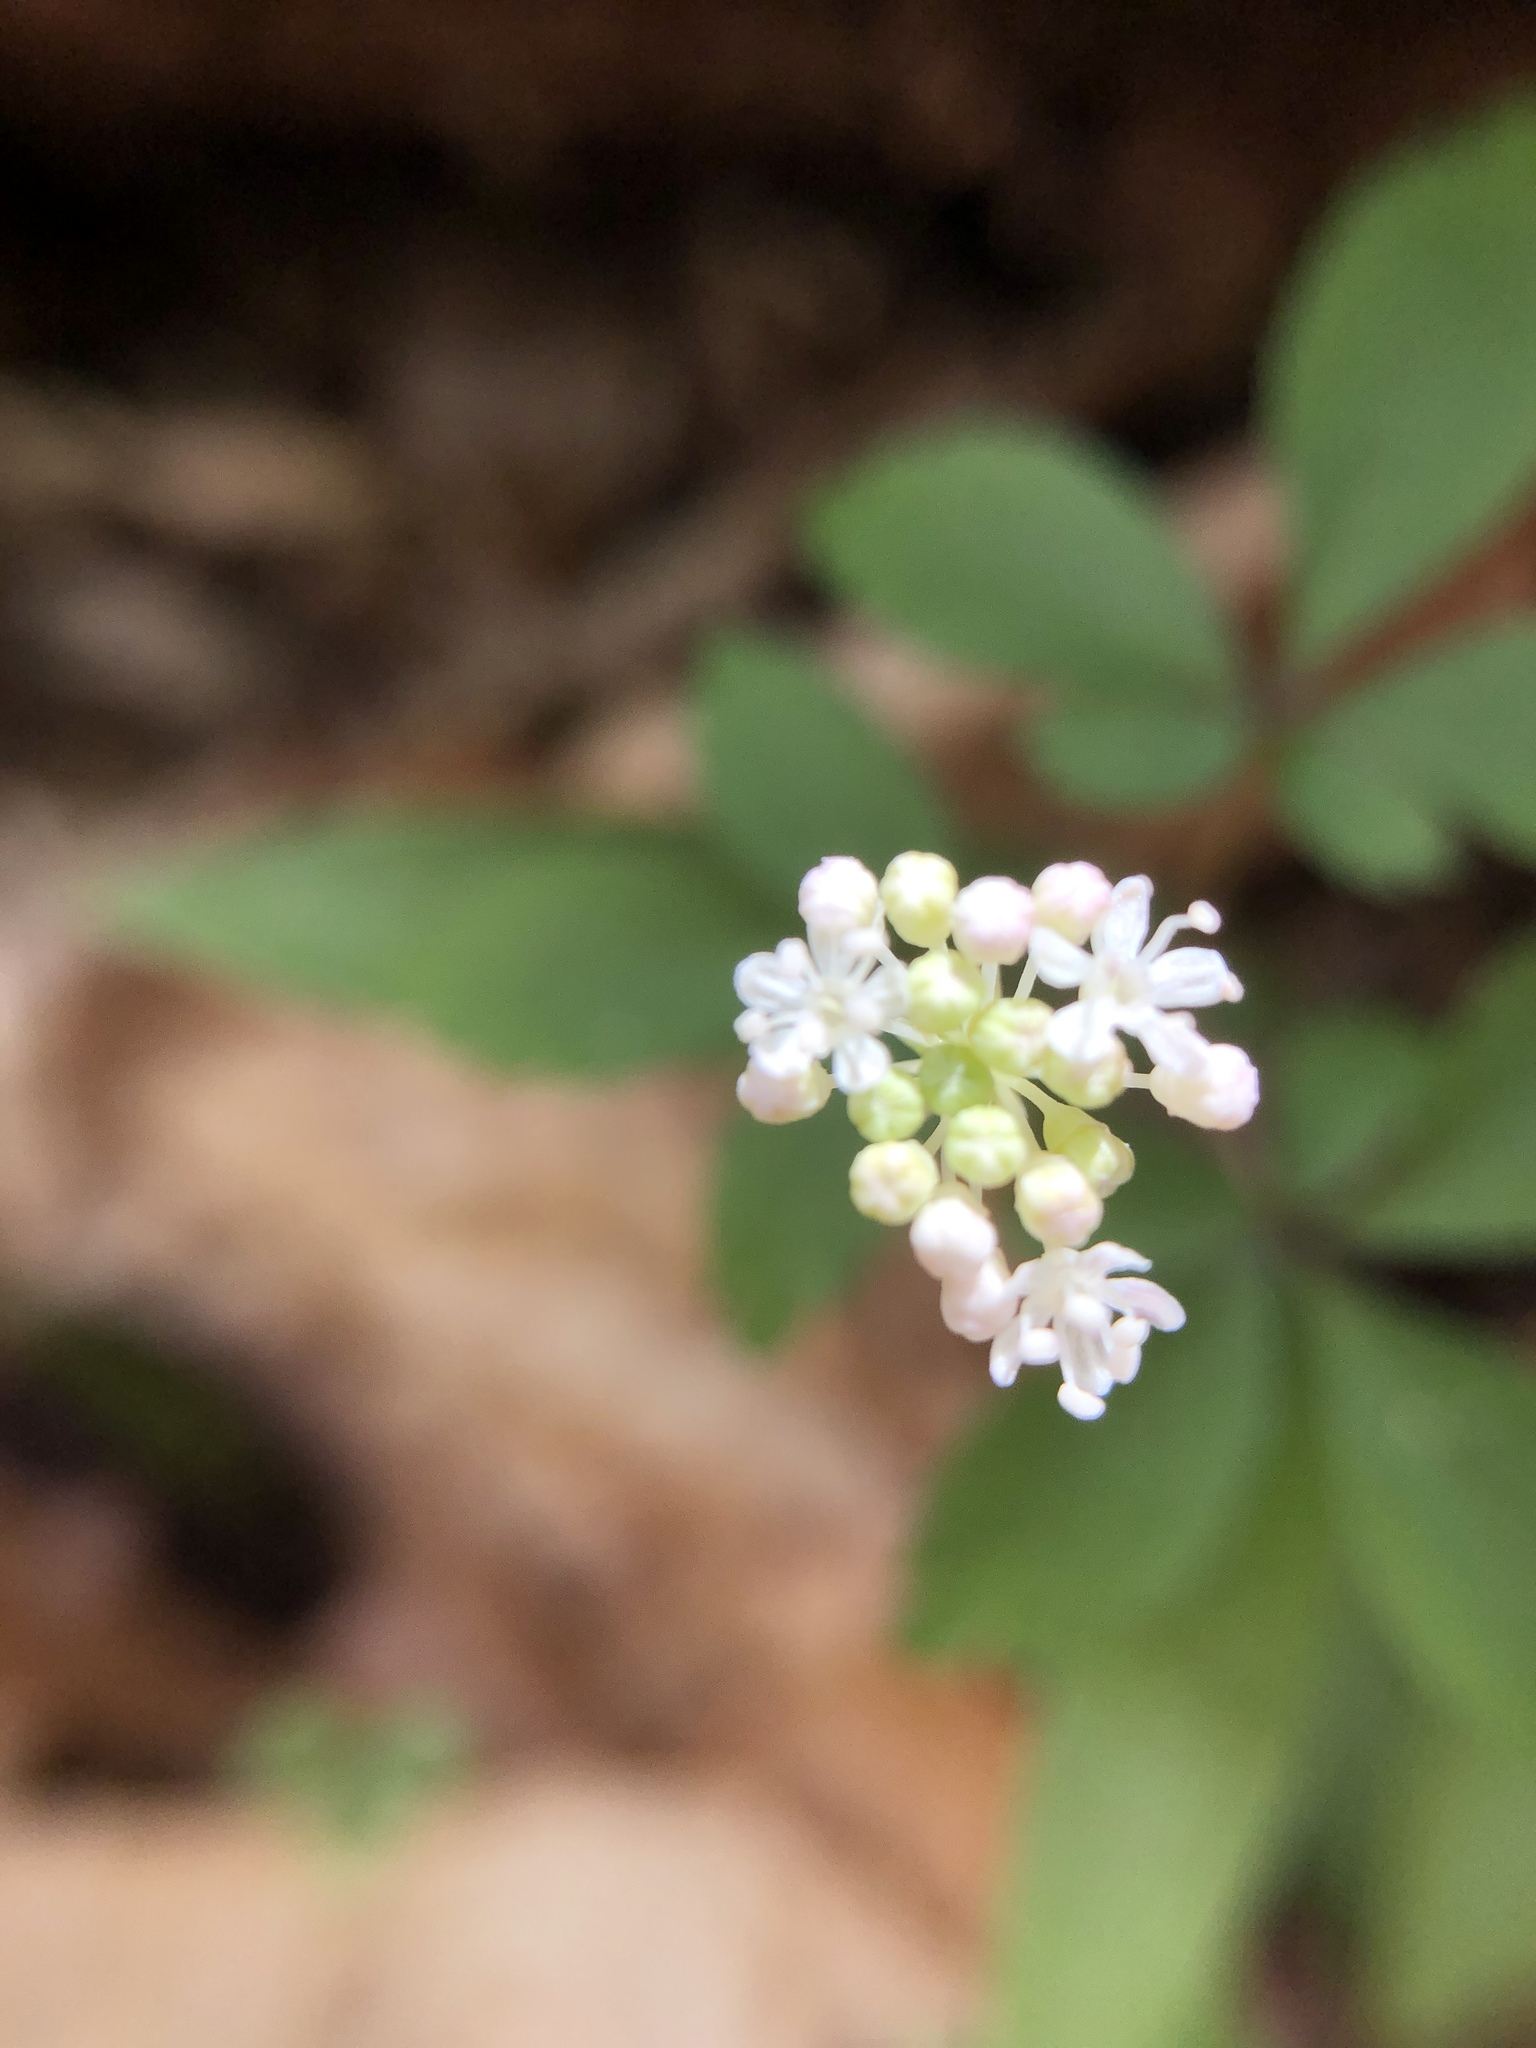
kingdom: Plantae
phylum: Tracheophyta
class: Magnoliopsida
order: Apiales
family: Araliaceae
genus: Panax
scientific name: Panax trifolius
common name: Dwarf ginseng
